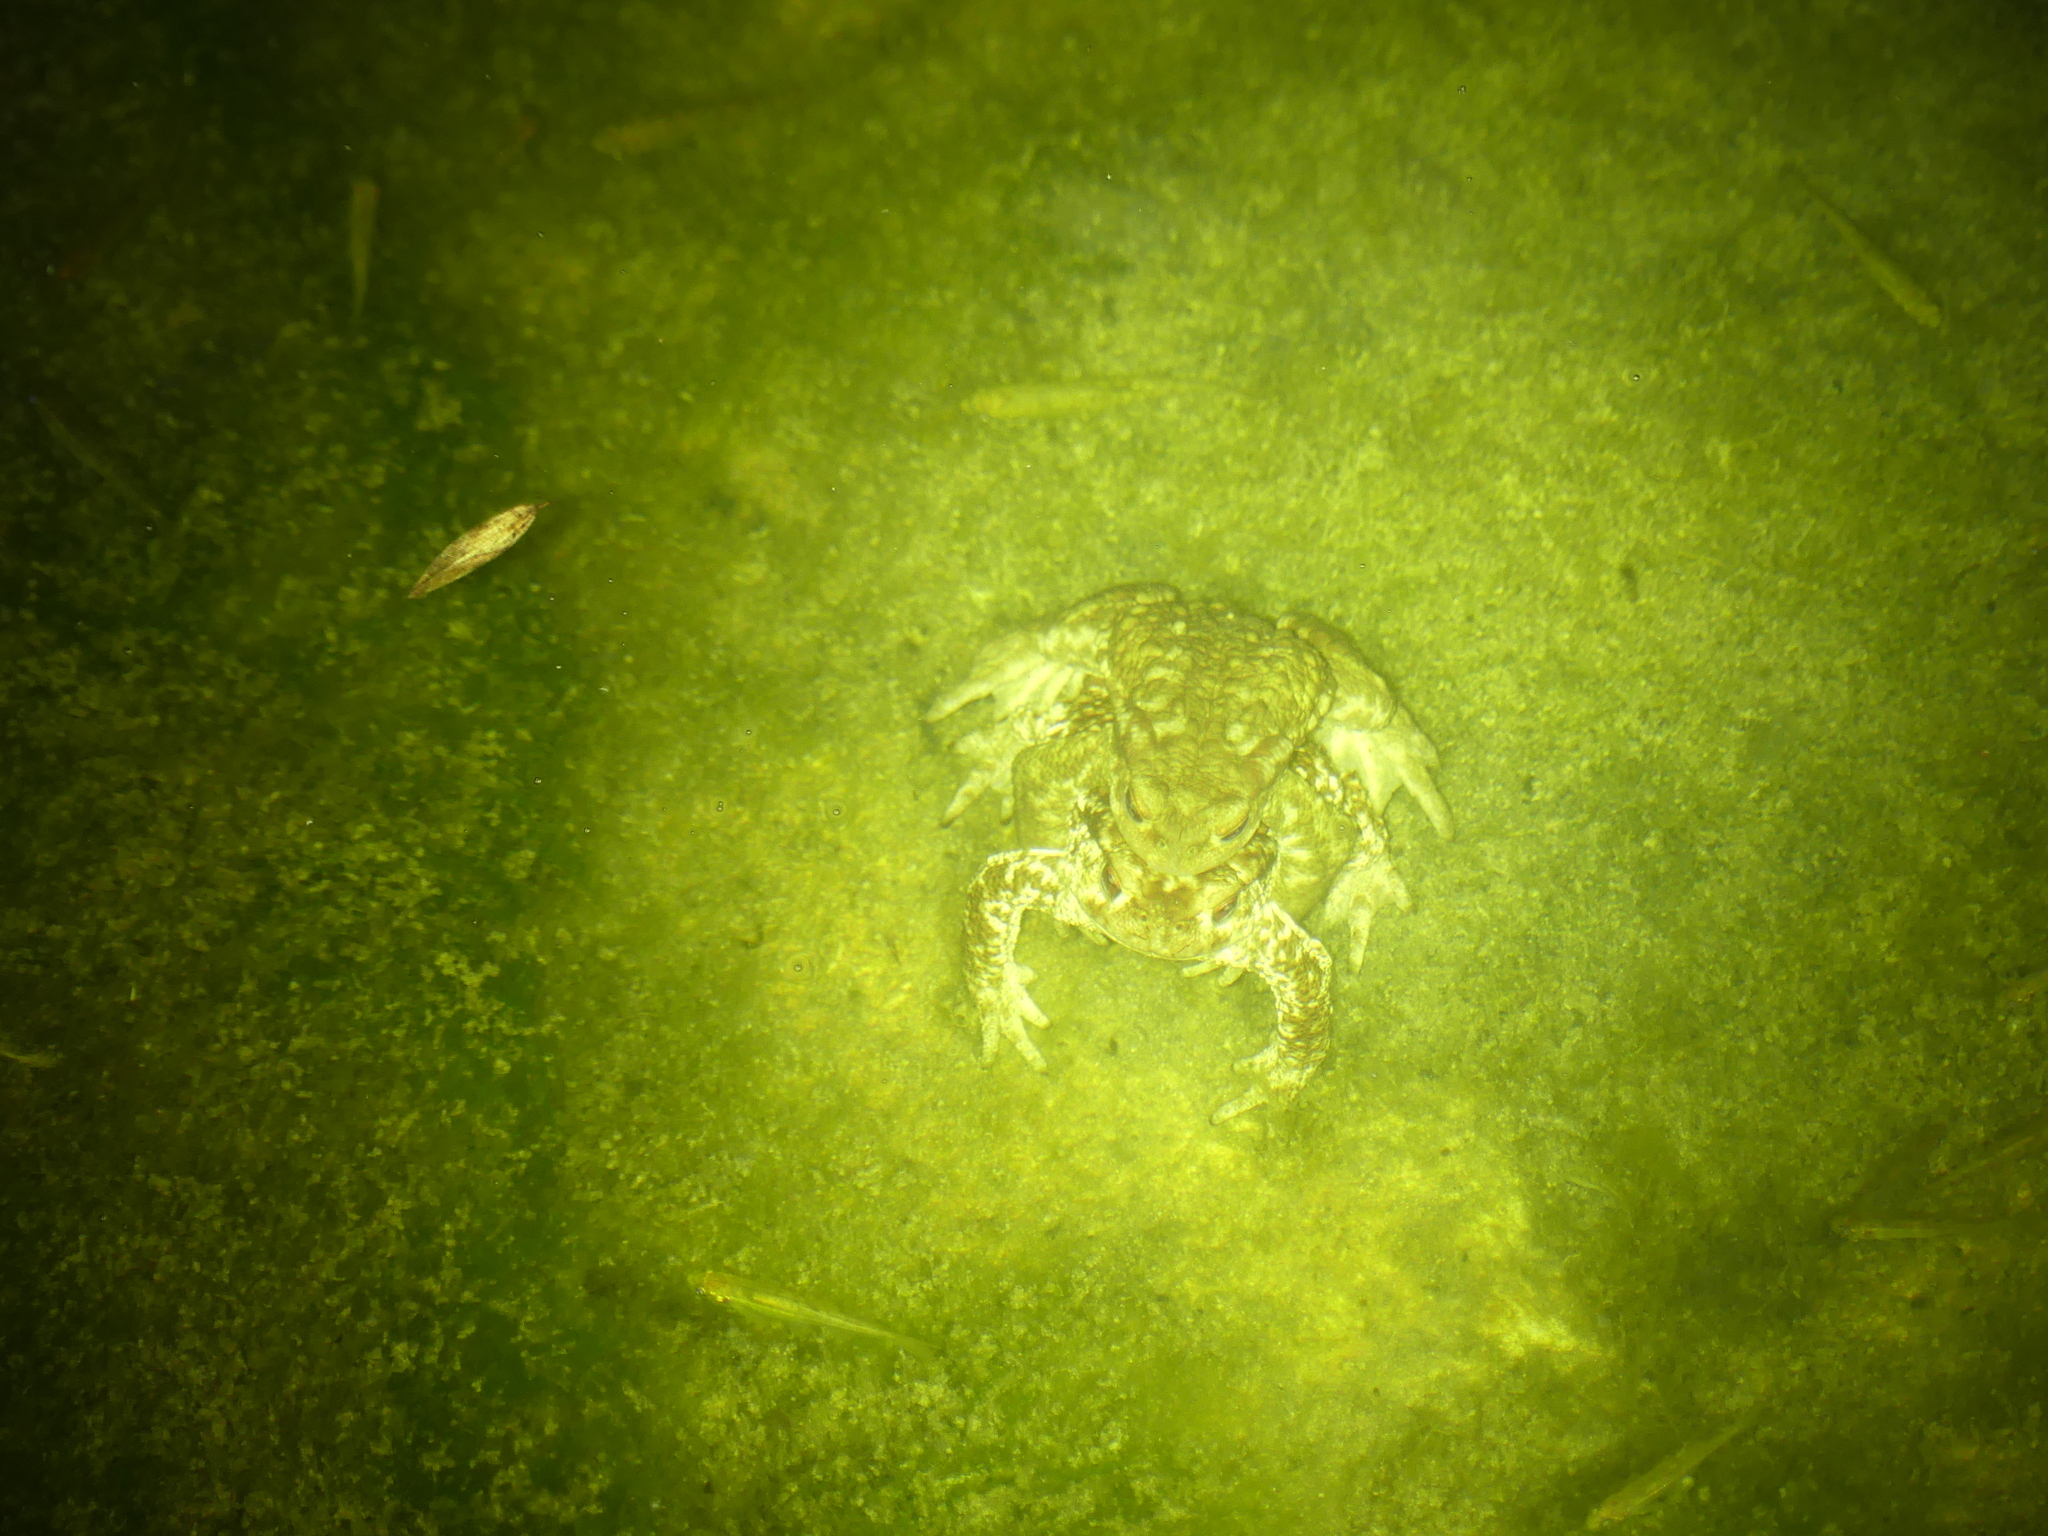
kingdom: Animalia
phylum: Chordata
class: Amphibia
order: Anura
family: Bufonidae
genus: Bufo
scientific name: Bufo spinosus
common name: Western common toad
